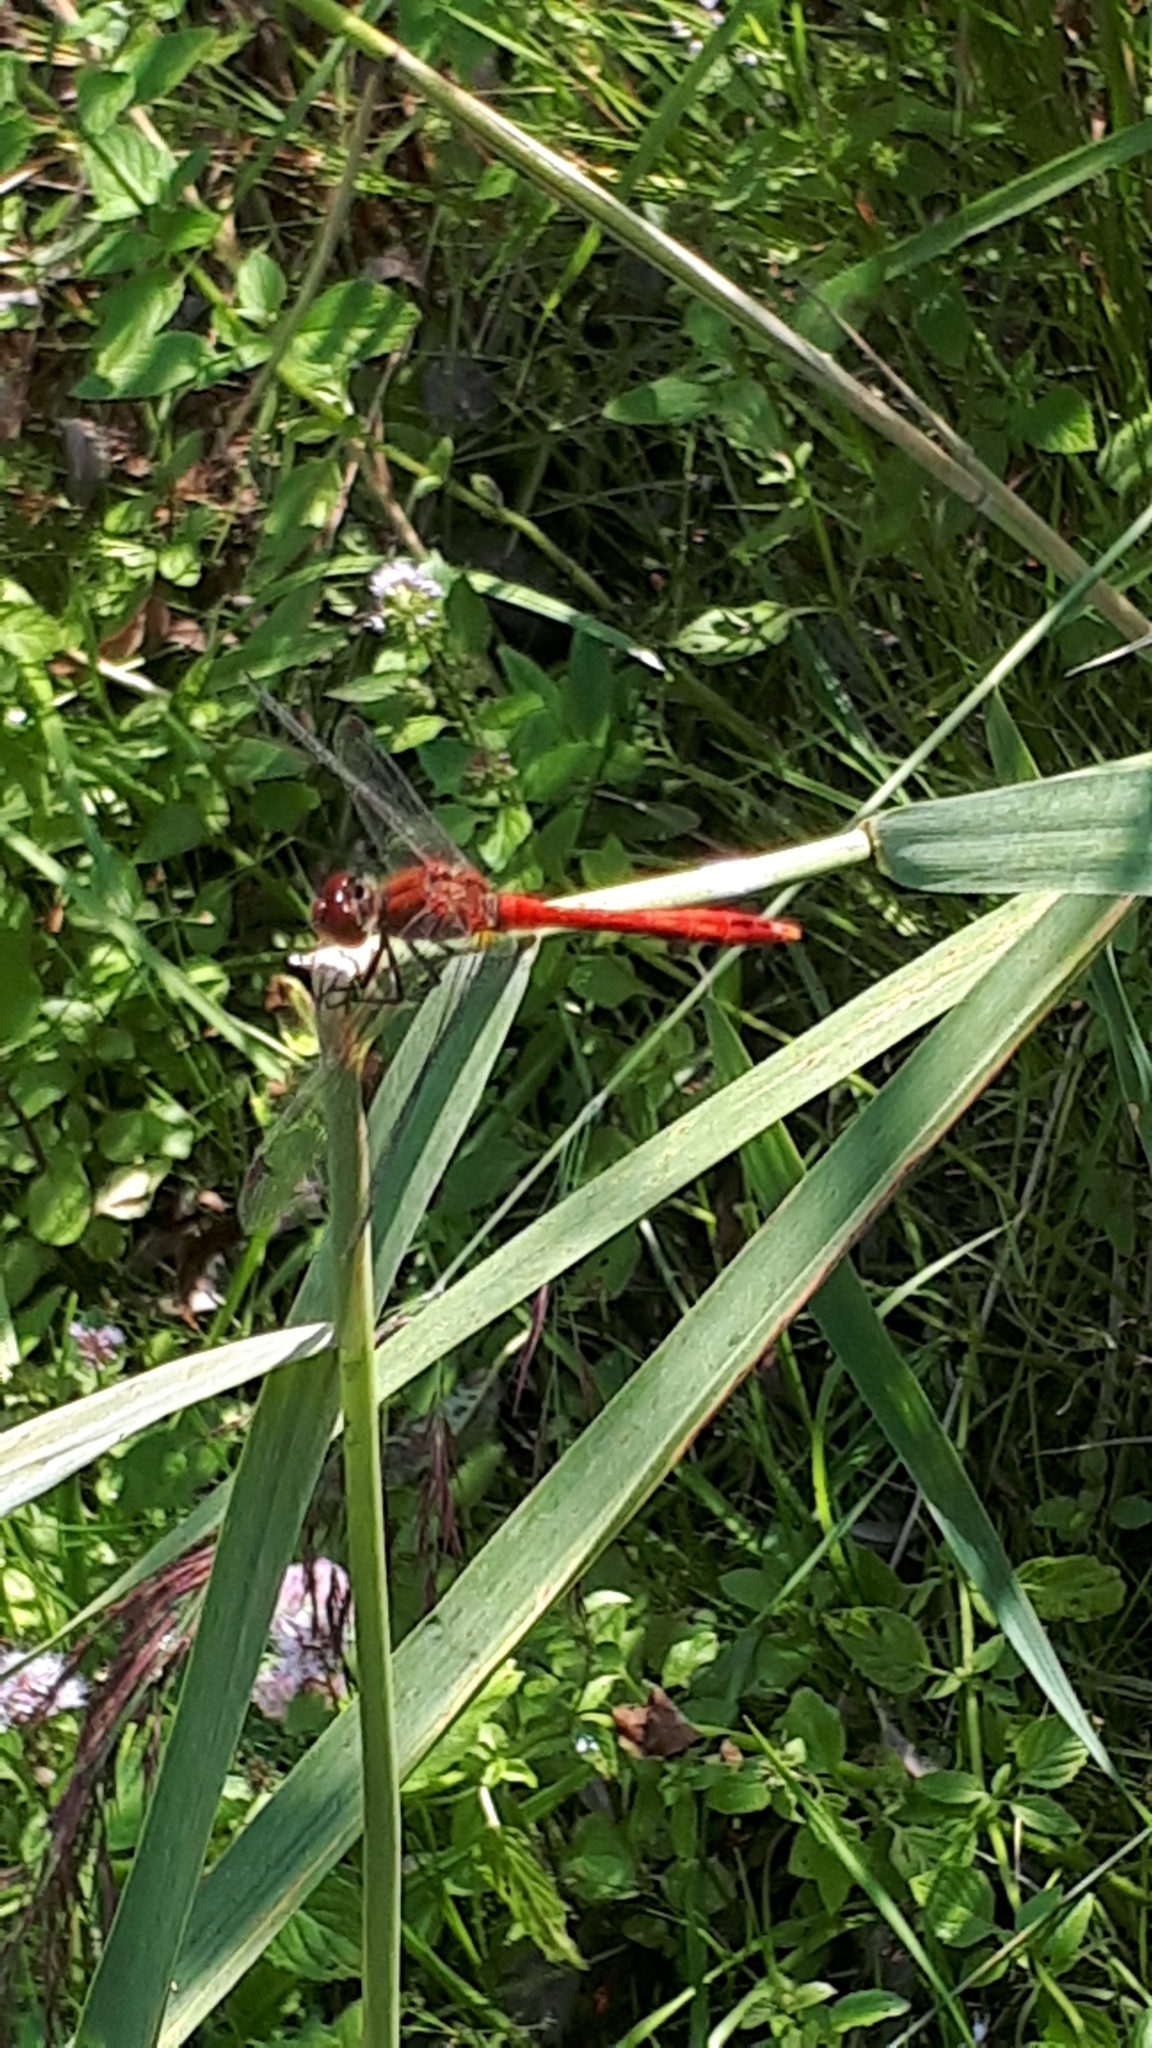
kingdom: Animalia
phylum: Arthropoda
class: Insecta
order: Odonata
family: Libellulidae
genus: Sympetrum
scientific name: Sympetrum sanguineum
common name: Ruddy darter
